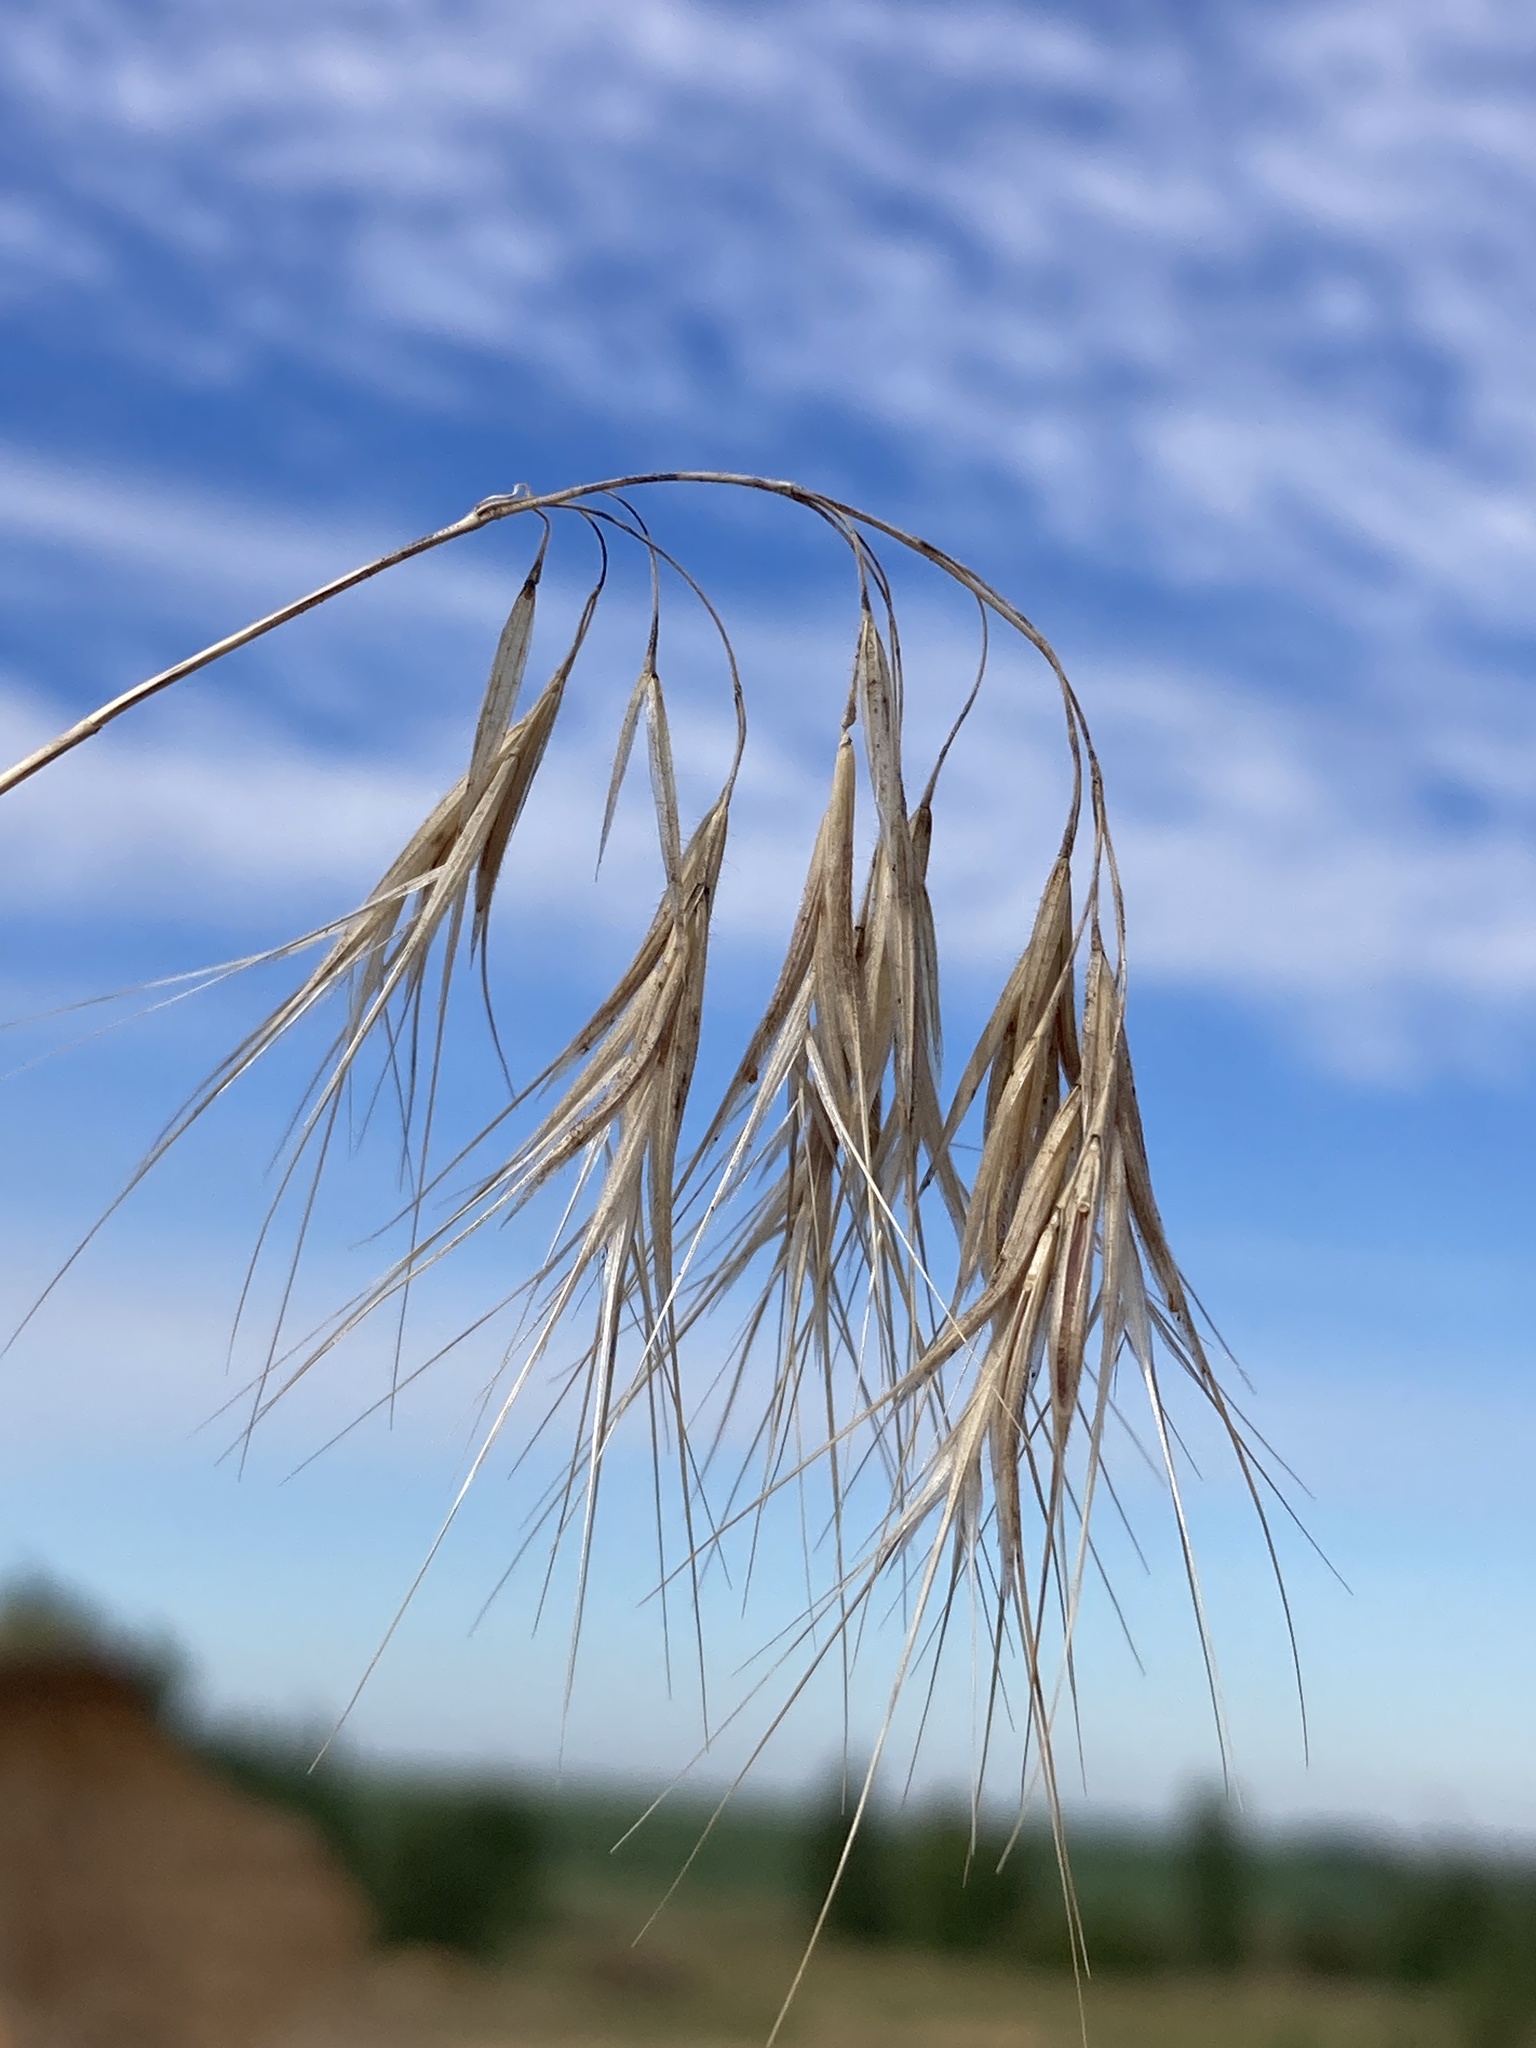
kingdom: Plantae
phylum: Tracheophyta
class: Liliopsida
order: Poales
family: Poaceae
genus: Bromus
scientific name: Bromus tectorum
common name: Cheatgrass
